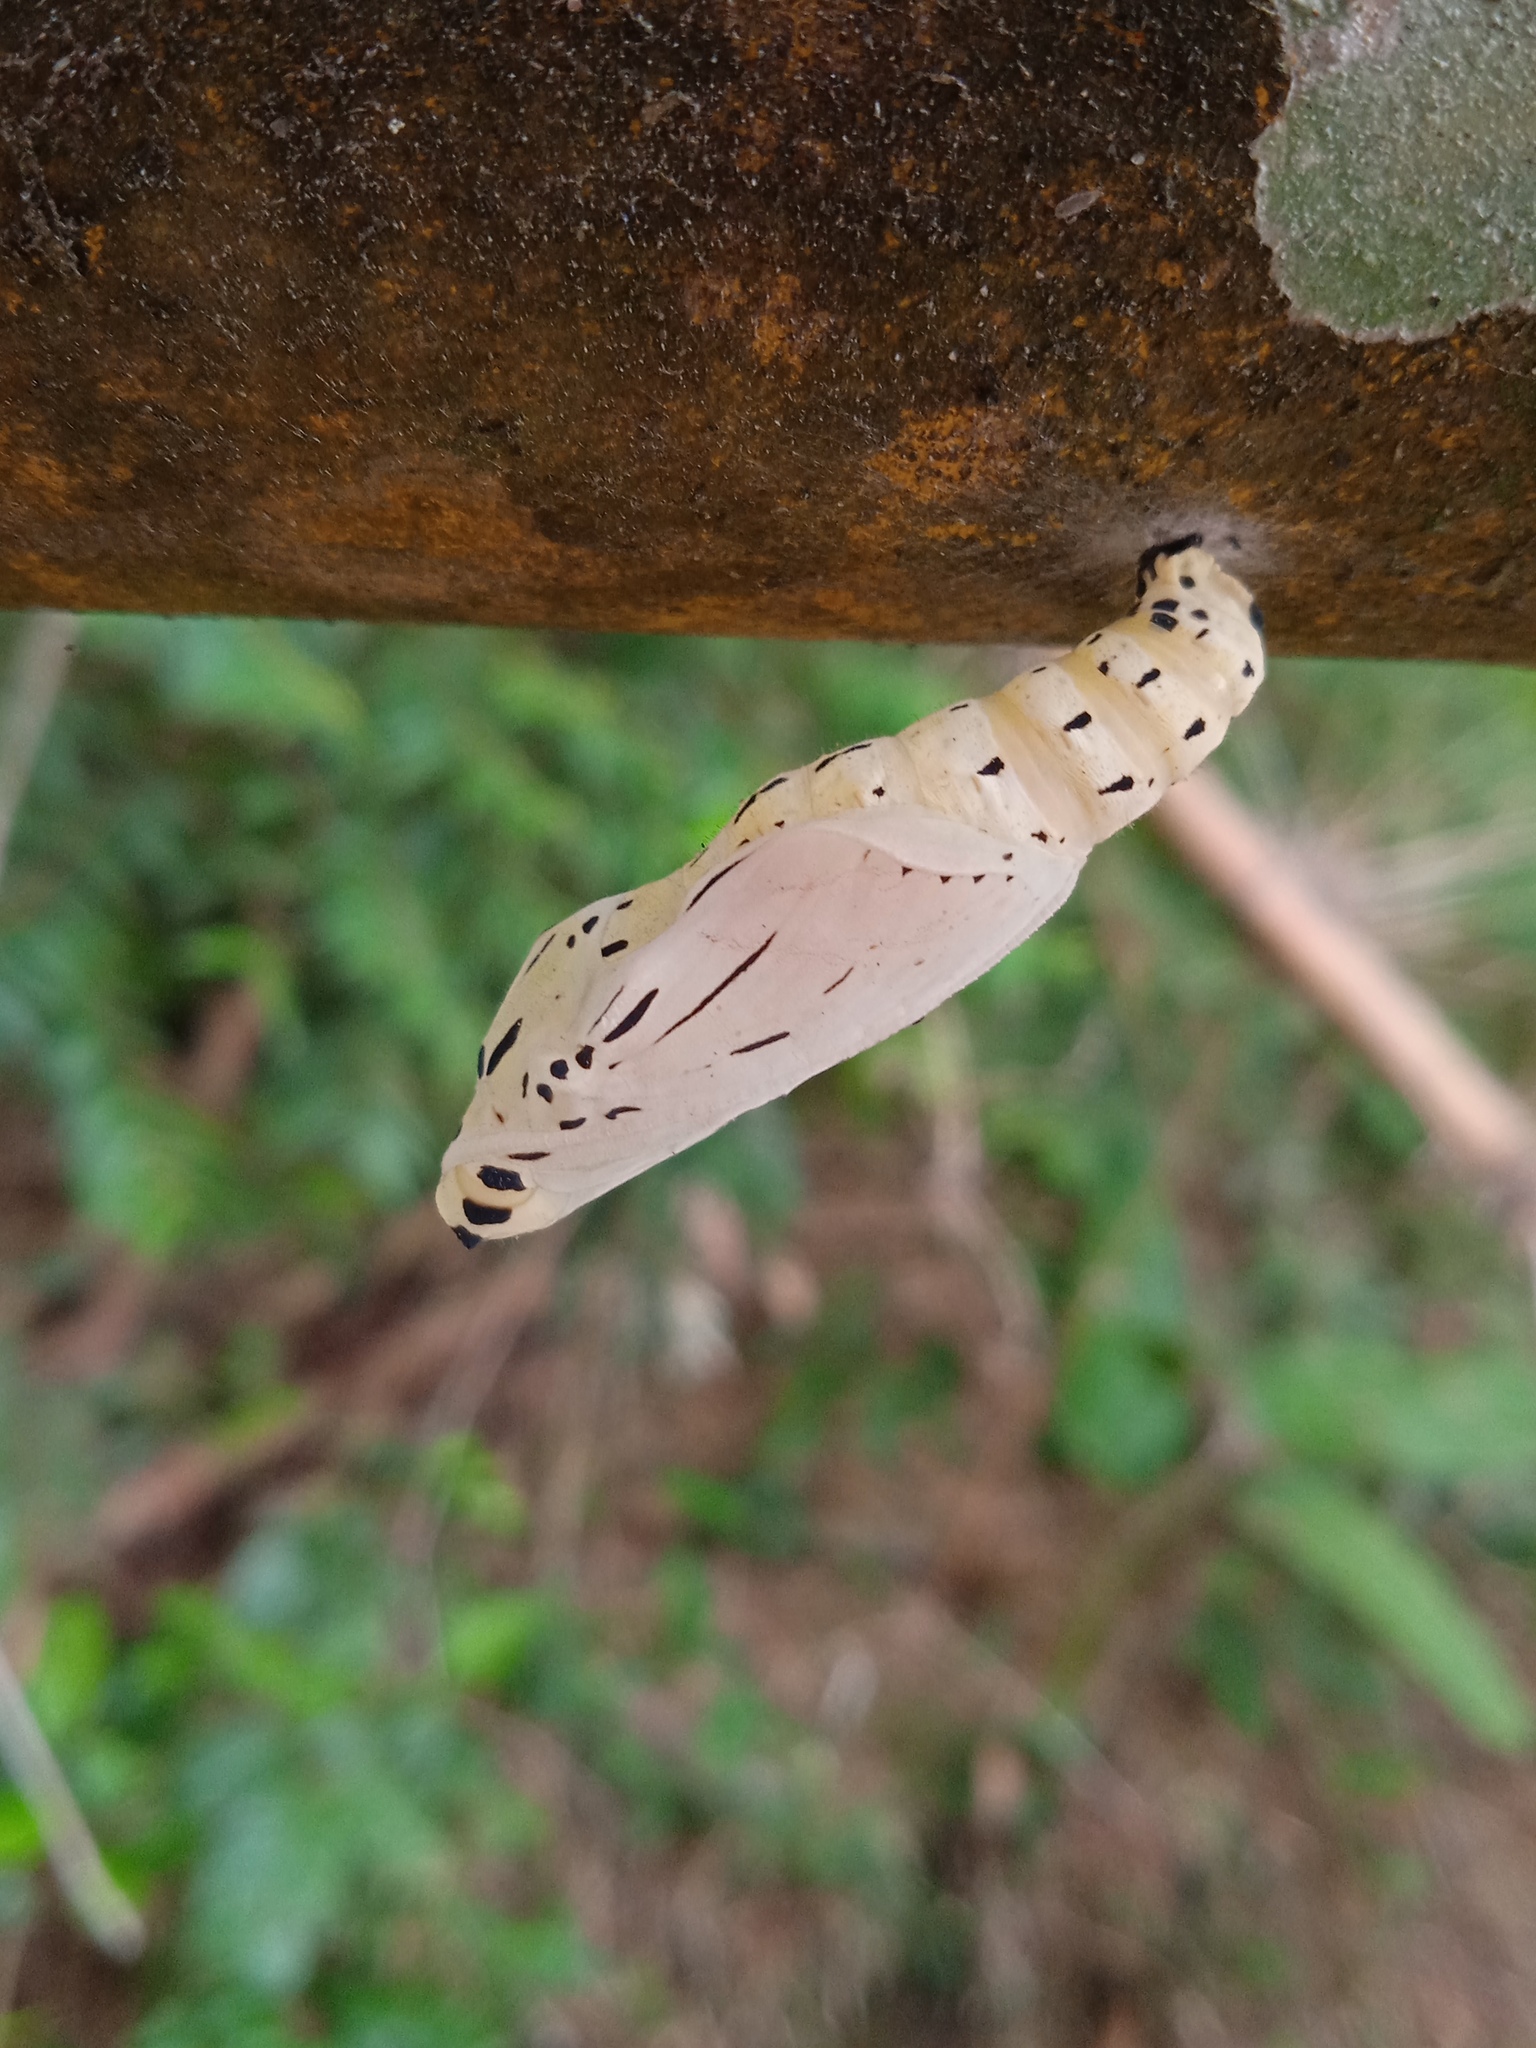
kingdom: Animalia
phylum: Arthropoda
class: Insecta
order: Lepidoptera
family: Nymphalidae
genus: Panacea
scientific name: Panacea prola
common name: Red flasher
